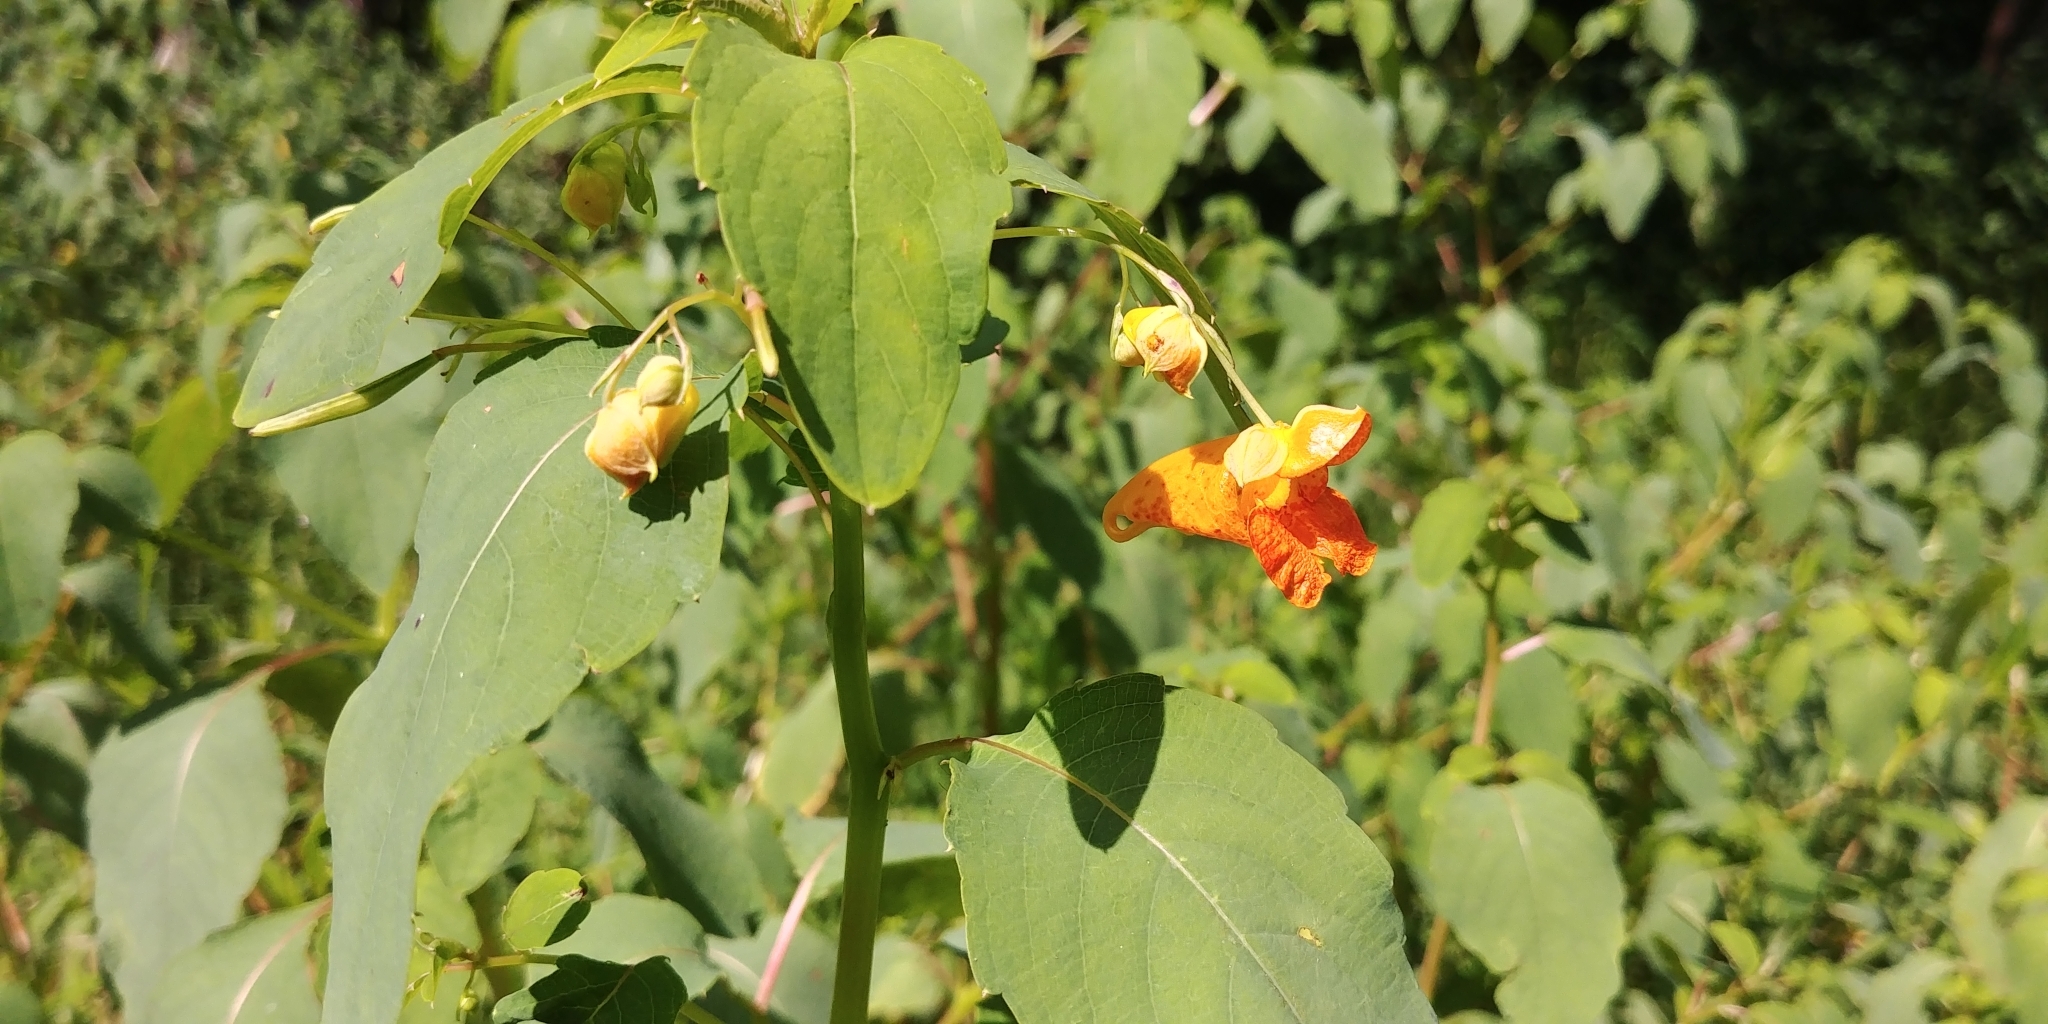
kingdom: Plantae
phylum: Tracheophyta
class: Magnoliopsida
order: Ericales
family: Balsaminaceae
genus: Impatiens
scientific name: Impatiens capensis
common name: Orange balsam
